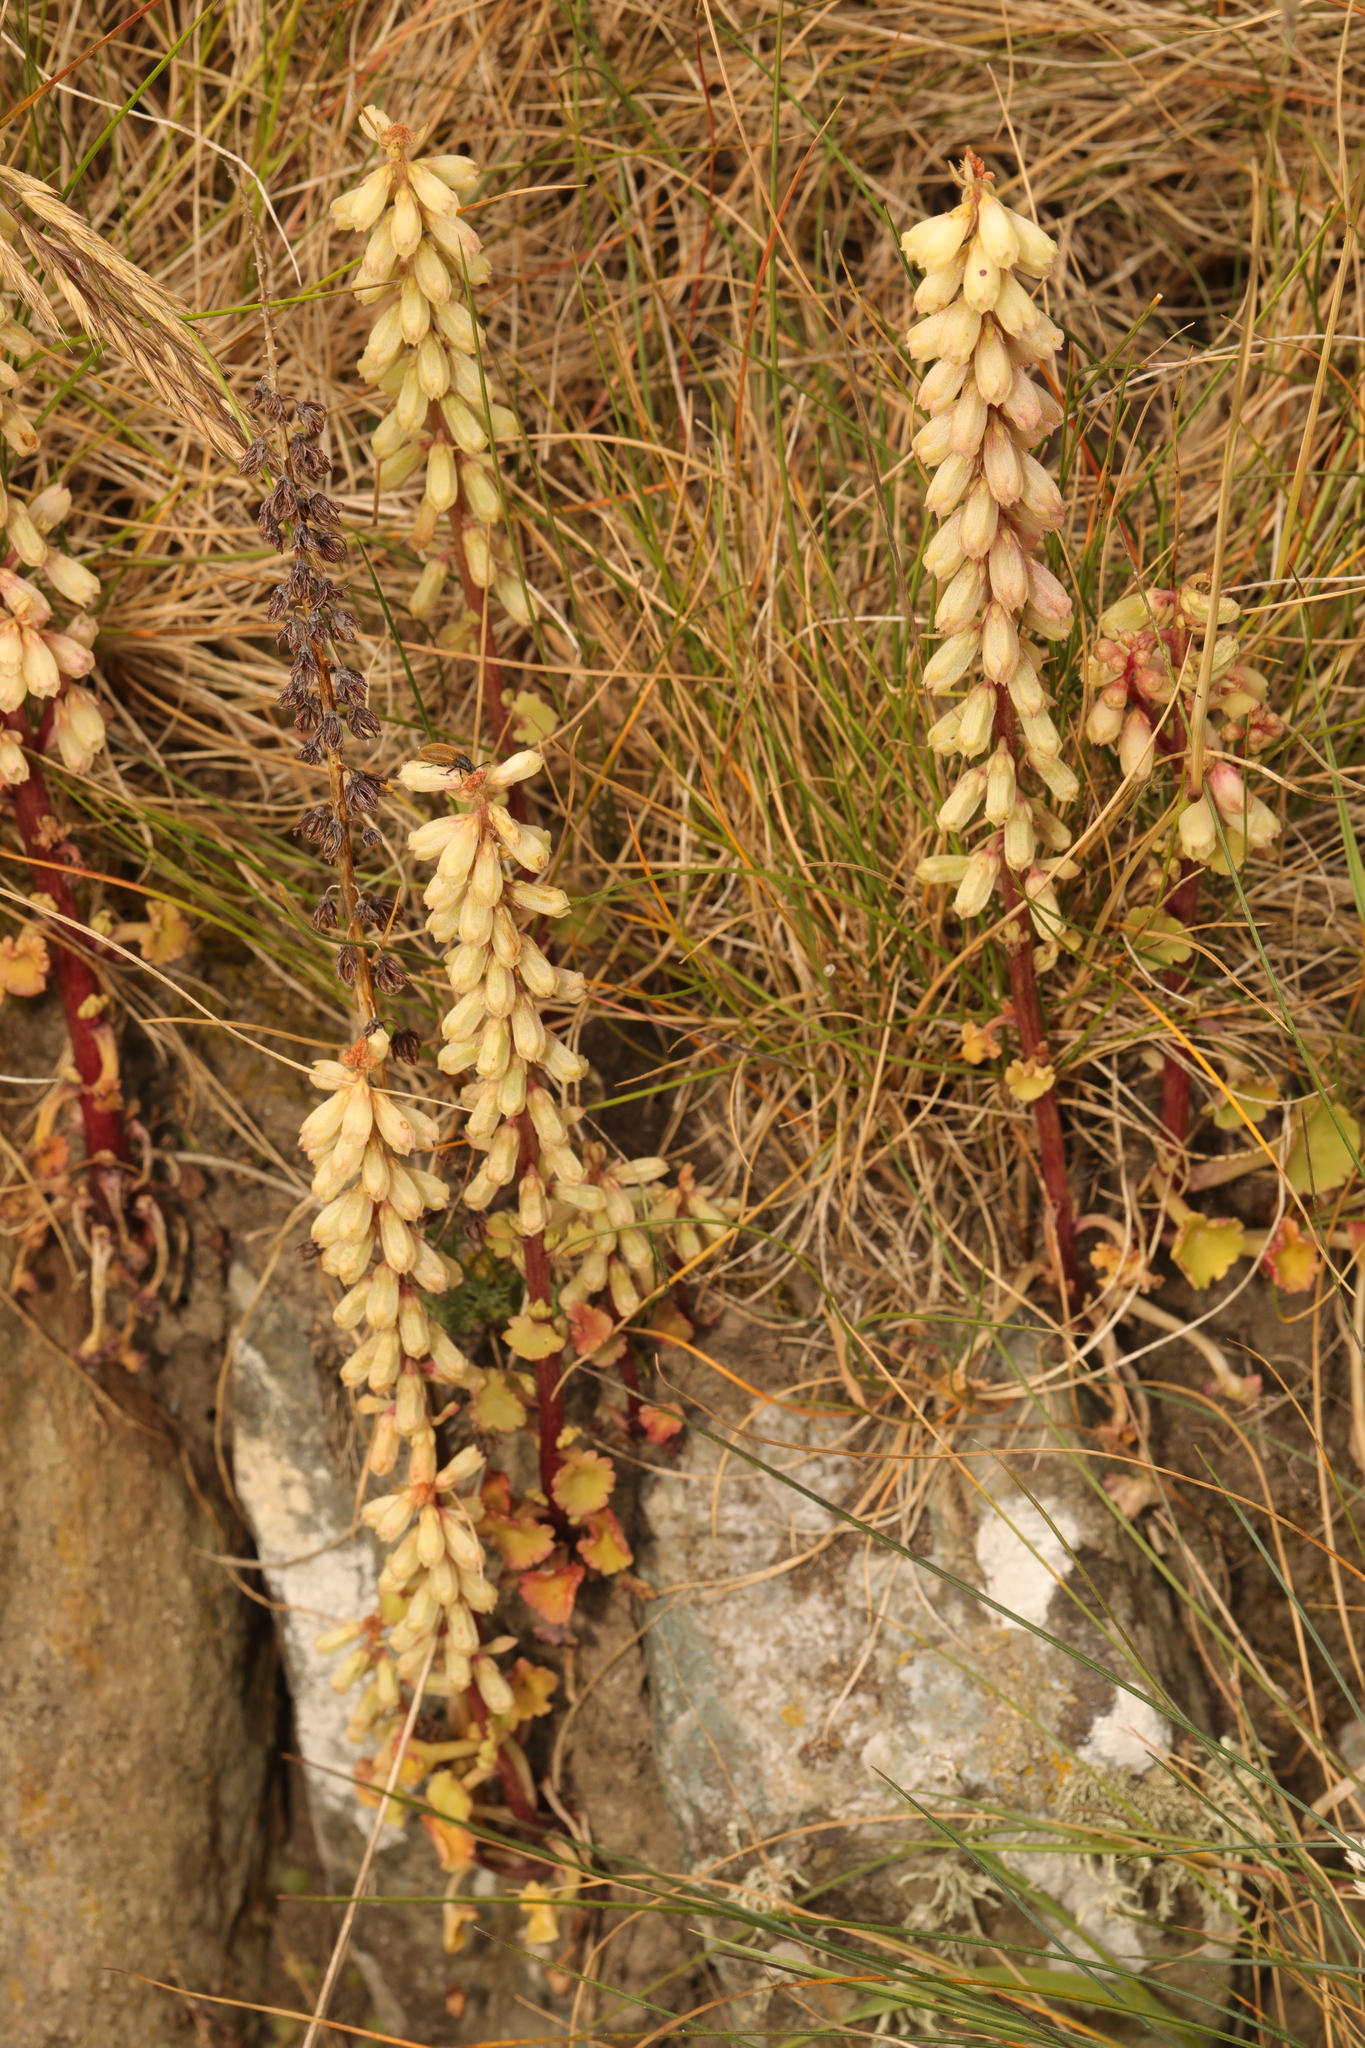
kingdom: Plantae
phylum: Tracheophyta
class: Magnoliopsida
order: Saxifragales
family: Crassulaceae
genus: Umbilicus
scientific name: Umbilicus rupestris
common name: Navelwort
